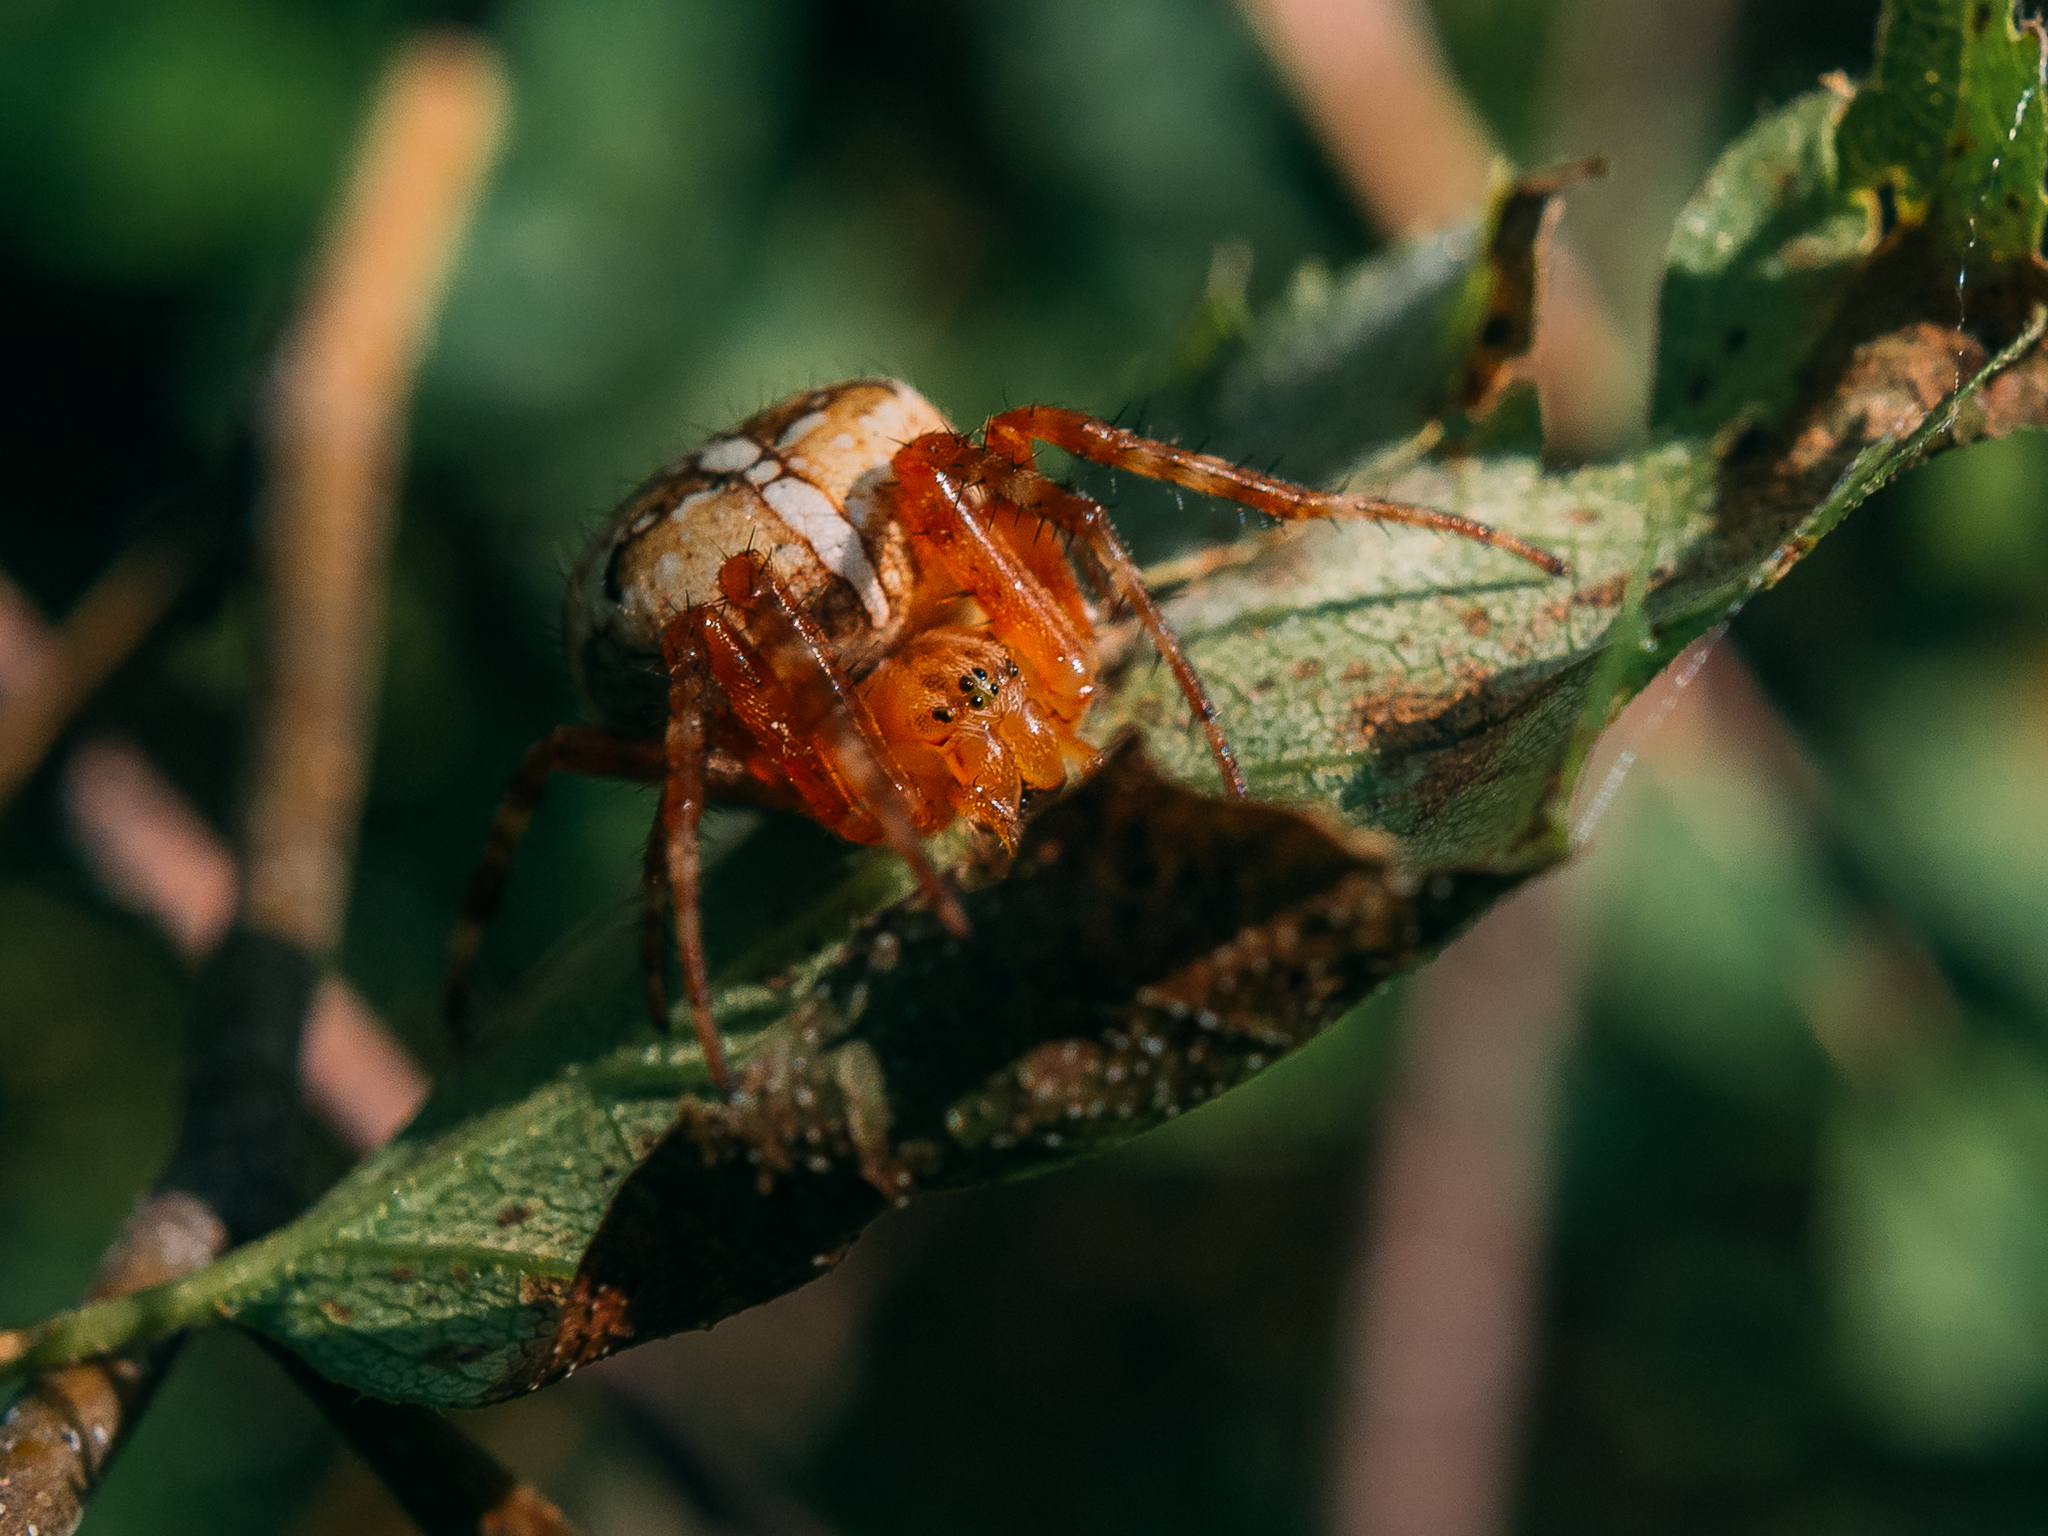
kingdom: Animalia
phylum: Arthropoda
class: Arachnida
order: Araneae
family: Araneidae
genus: Araneus
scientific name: Araneus diadematus
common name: Cross orbweaver
